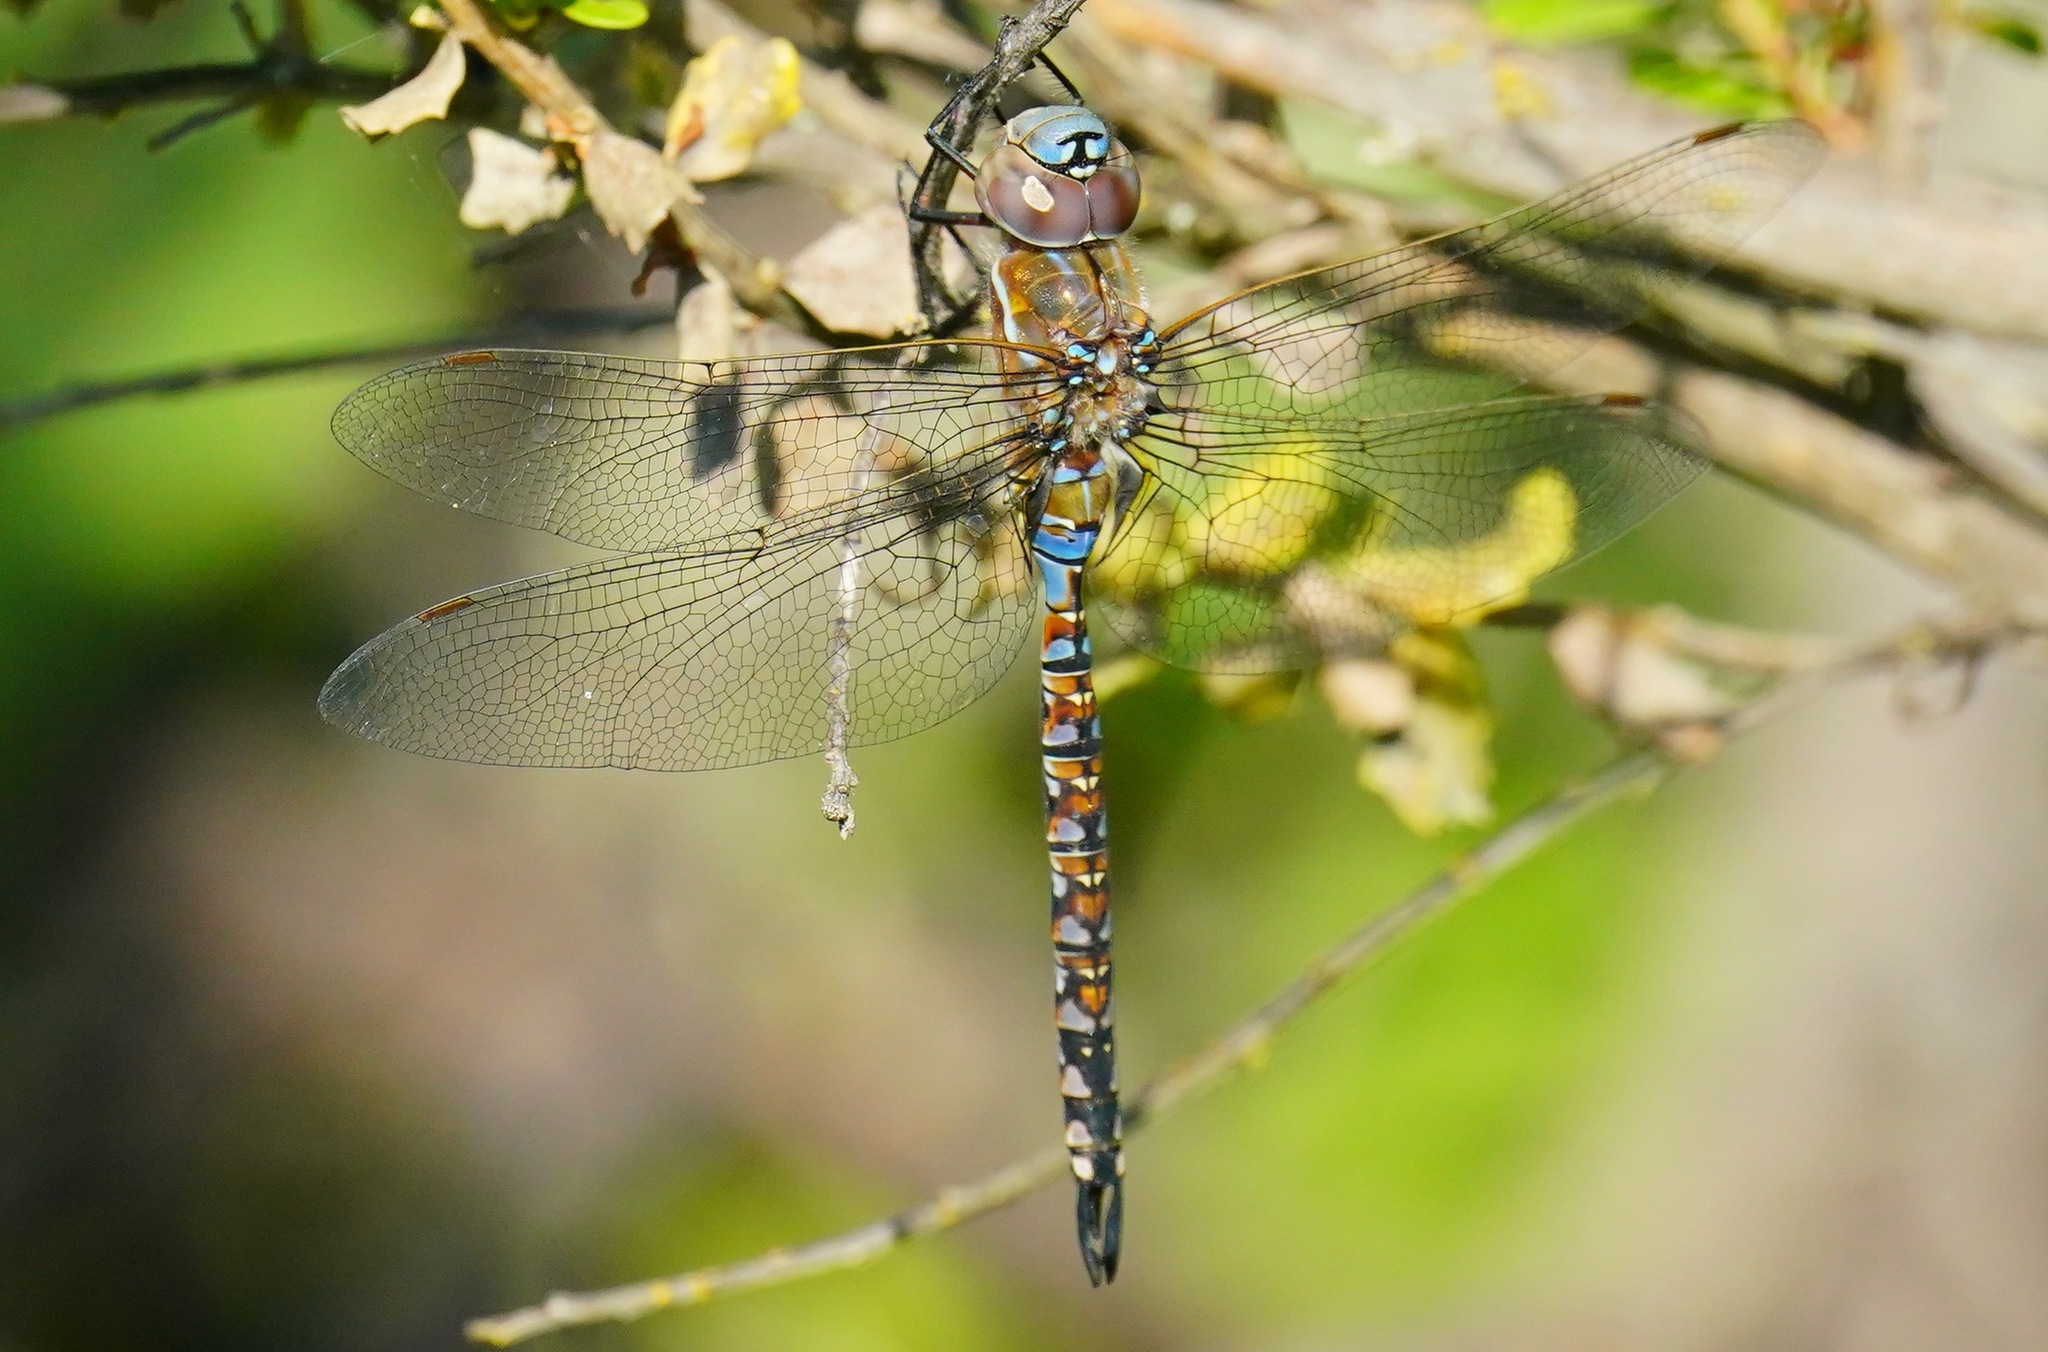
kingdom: Animalia
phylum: Arthropoda
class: Insecta
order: Odonata
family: Aeshnidae
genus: Rhionaeschna
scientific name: Rhionaeschna multicolor
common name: Blue-eyed darner
